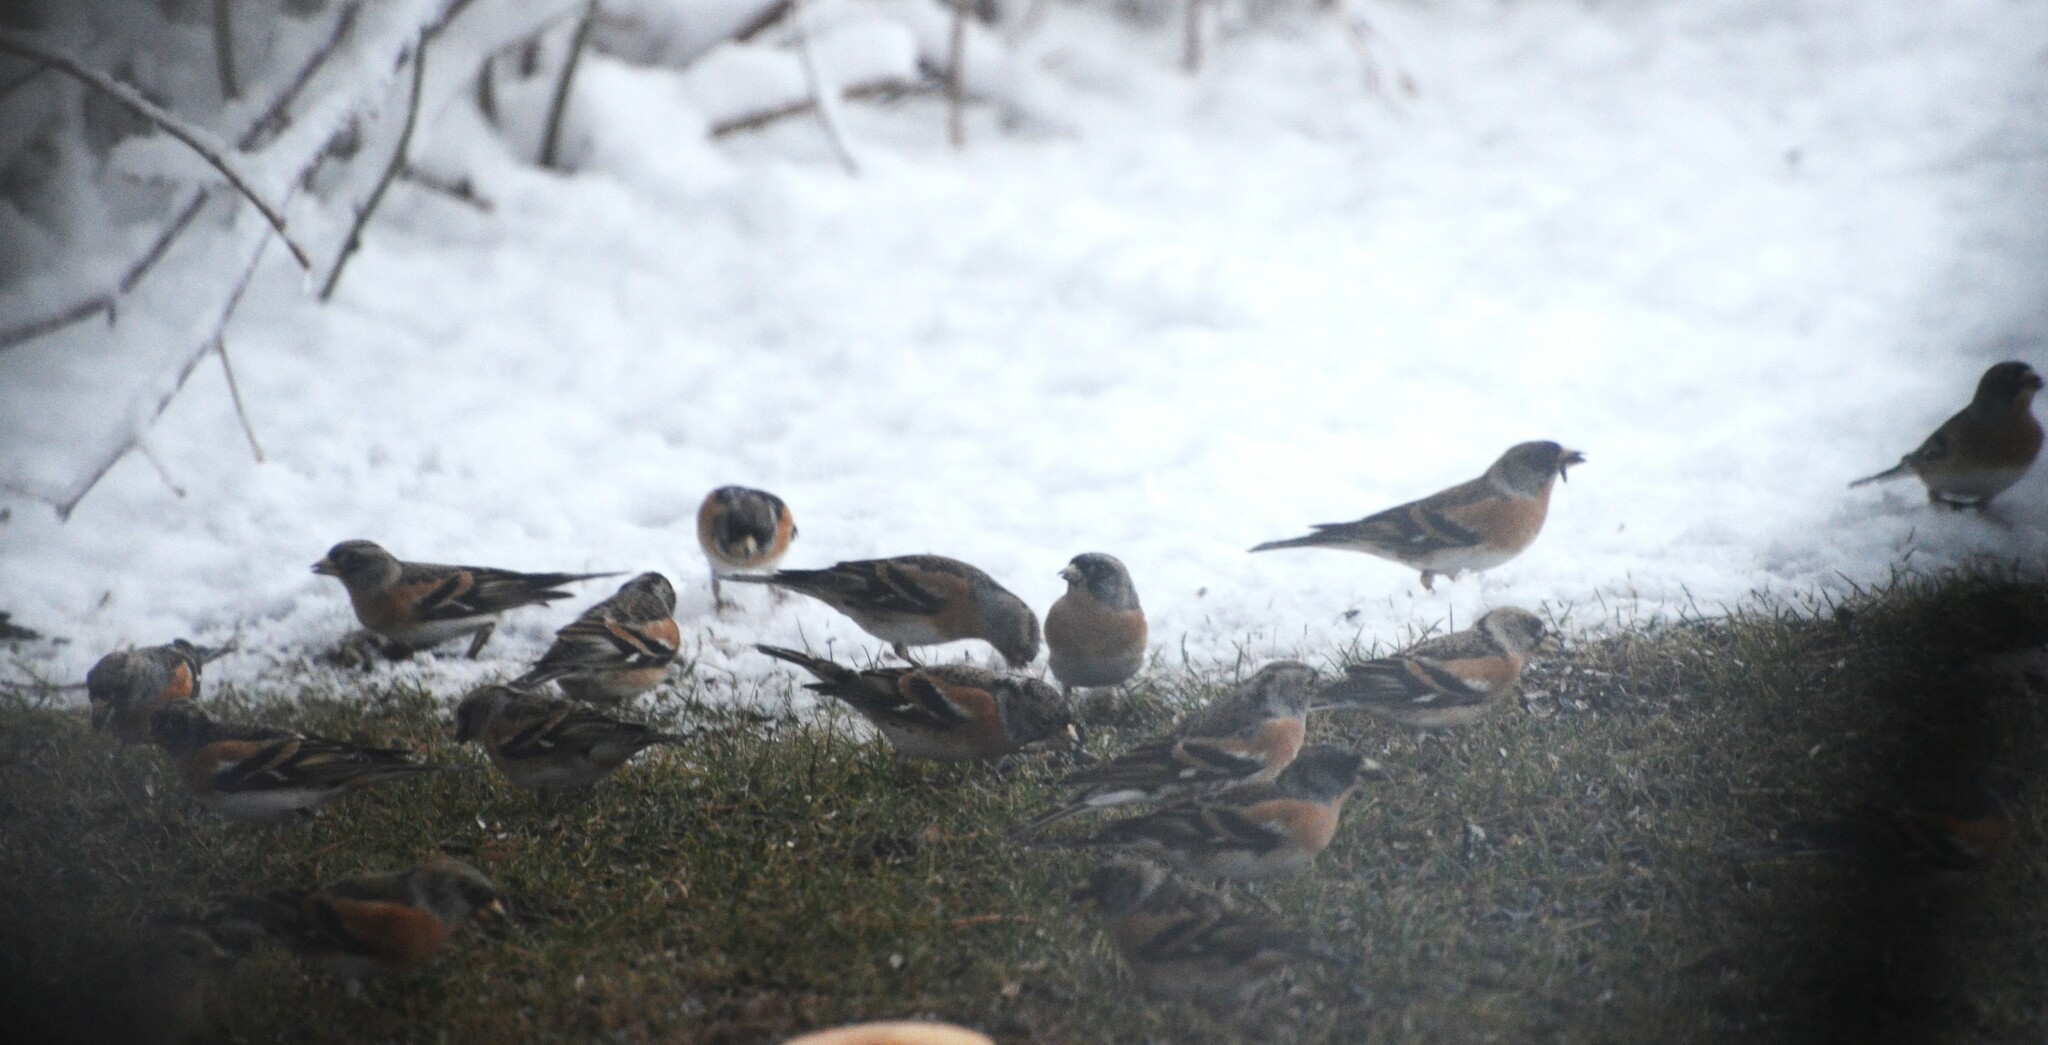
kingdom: Animalia
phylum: Chordata
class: Aves
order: Passeriformes
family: Fringillidae
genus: Fringilla
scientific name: Fringilla montifringilla
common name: Brambling
